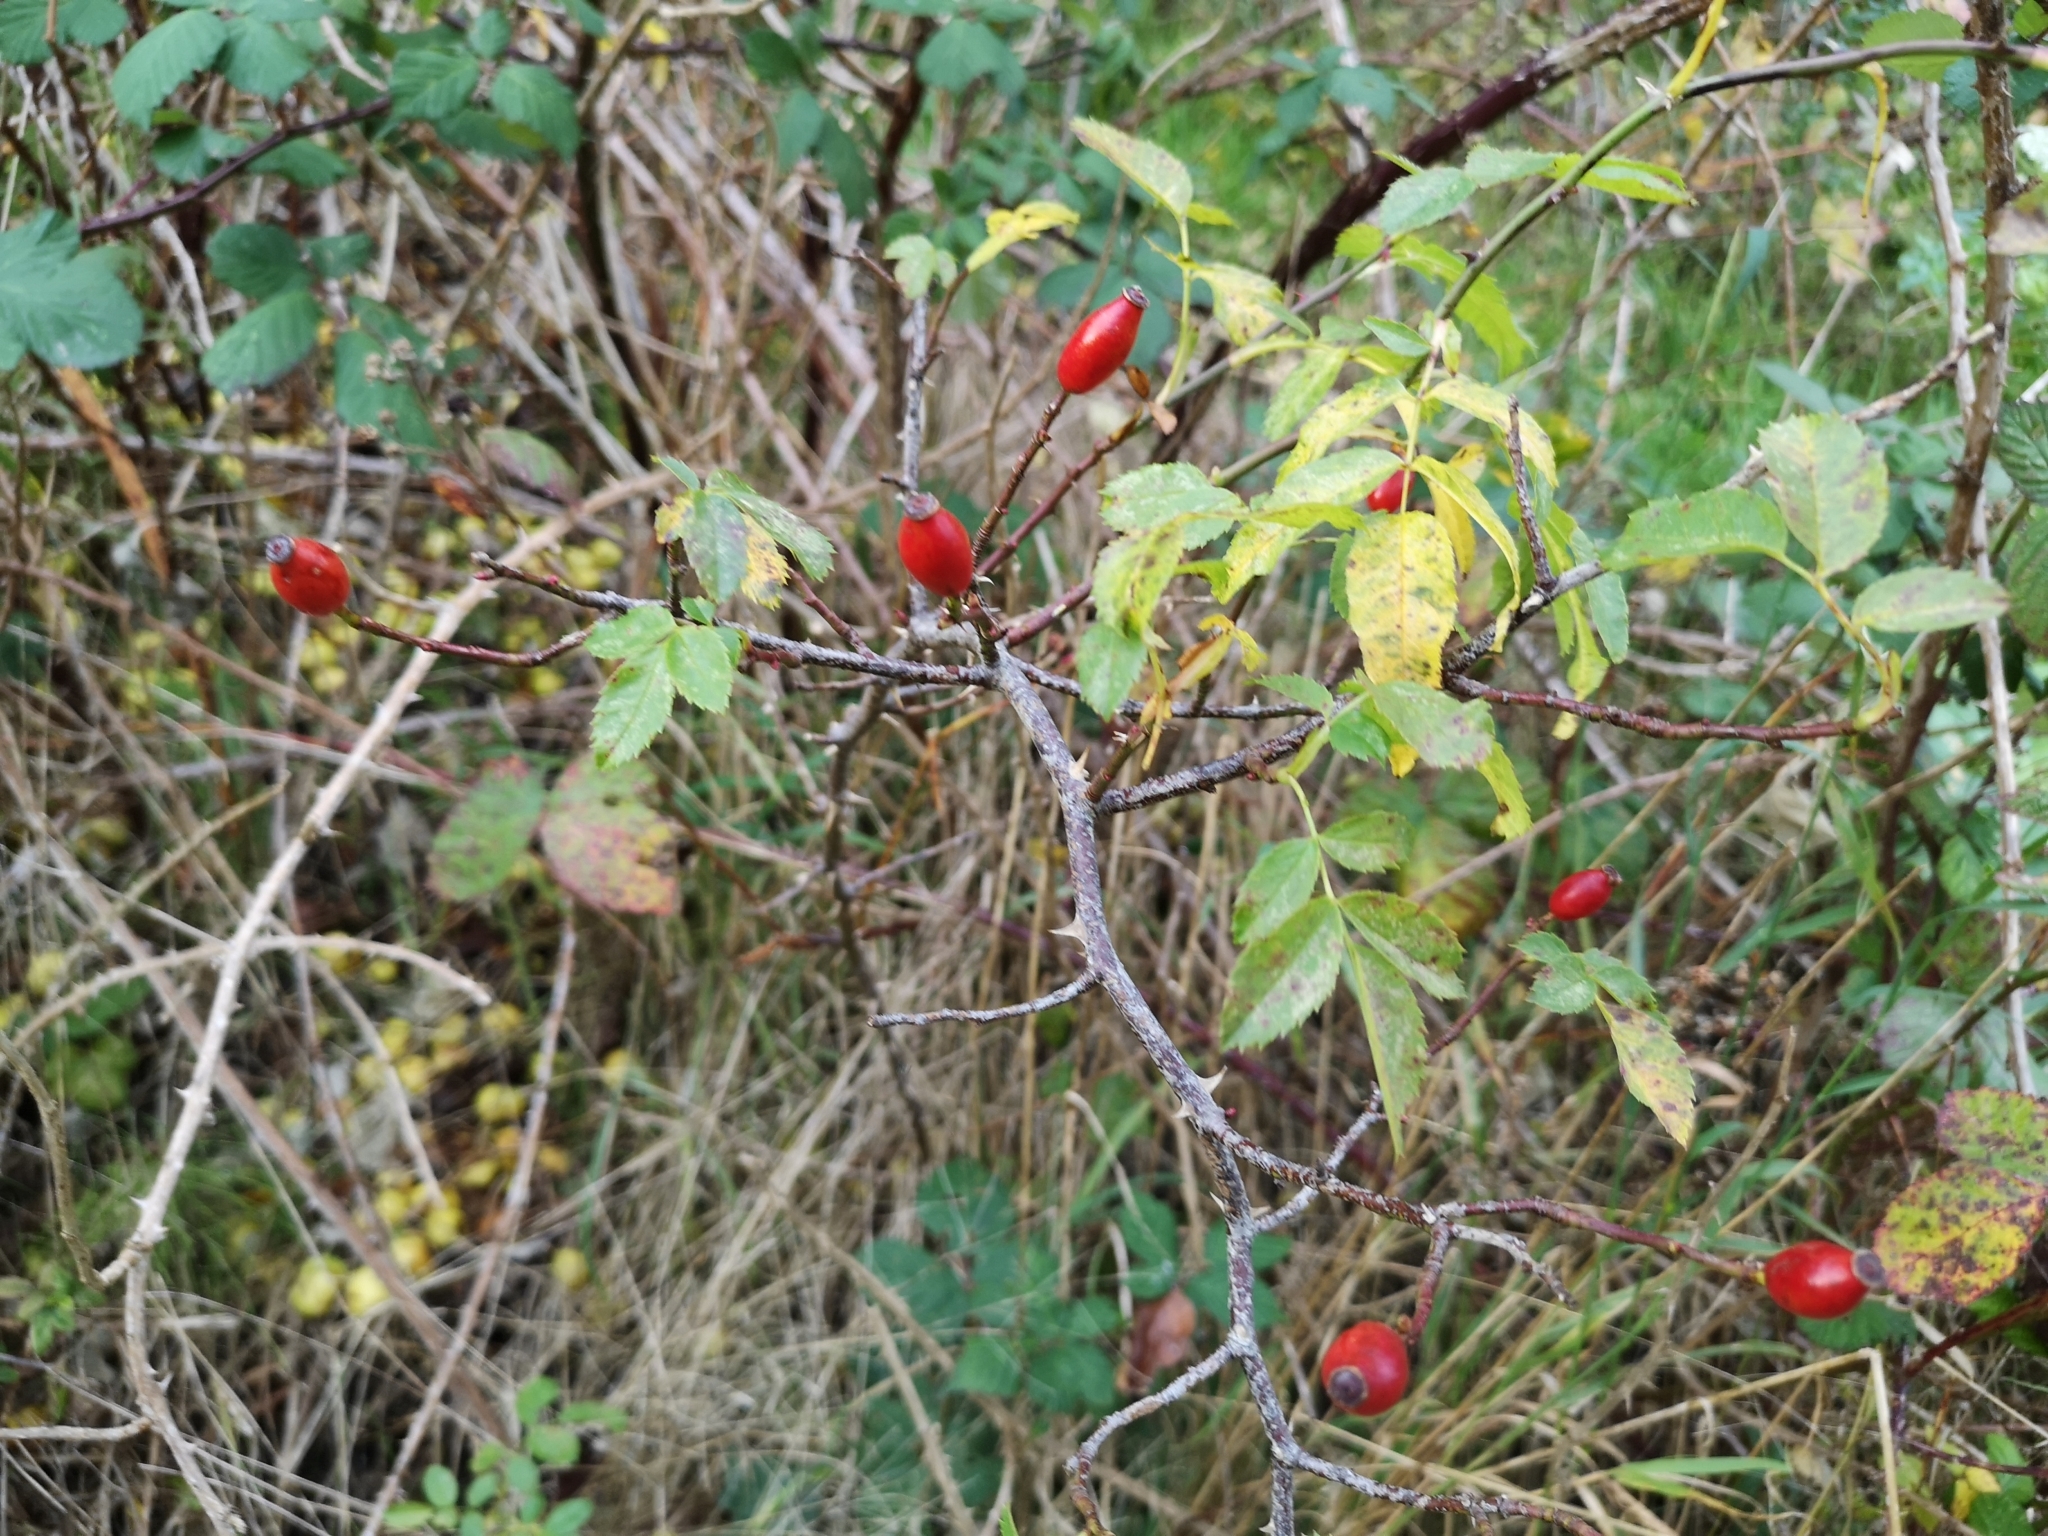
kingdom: Plantae
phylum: Tracheophyta
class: Magnoliopsida
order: Rosales
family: Rosaceae
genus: Rosa
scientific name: Rosa canina
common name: Dog rose
